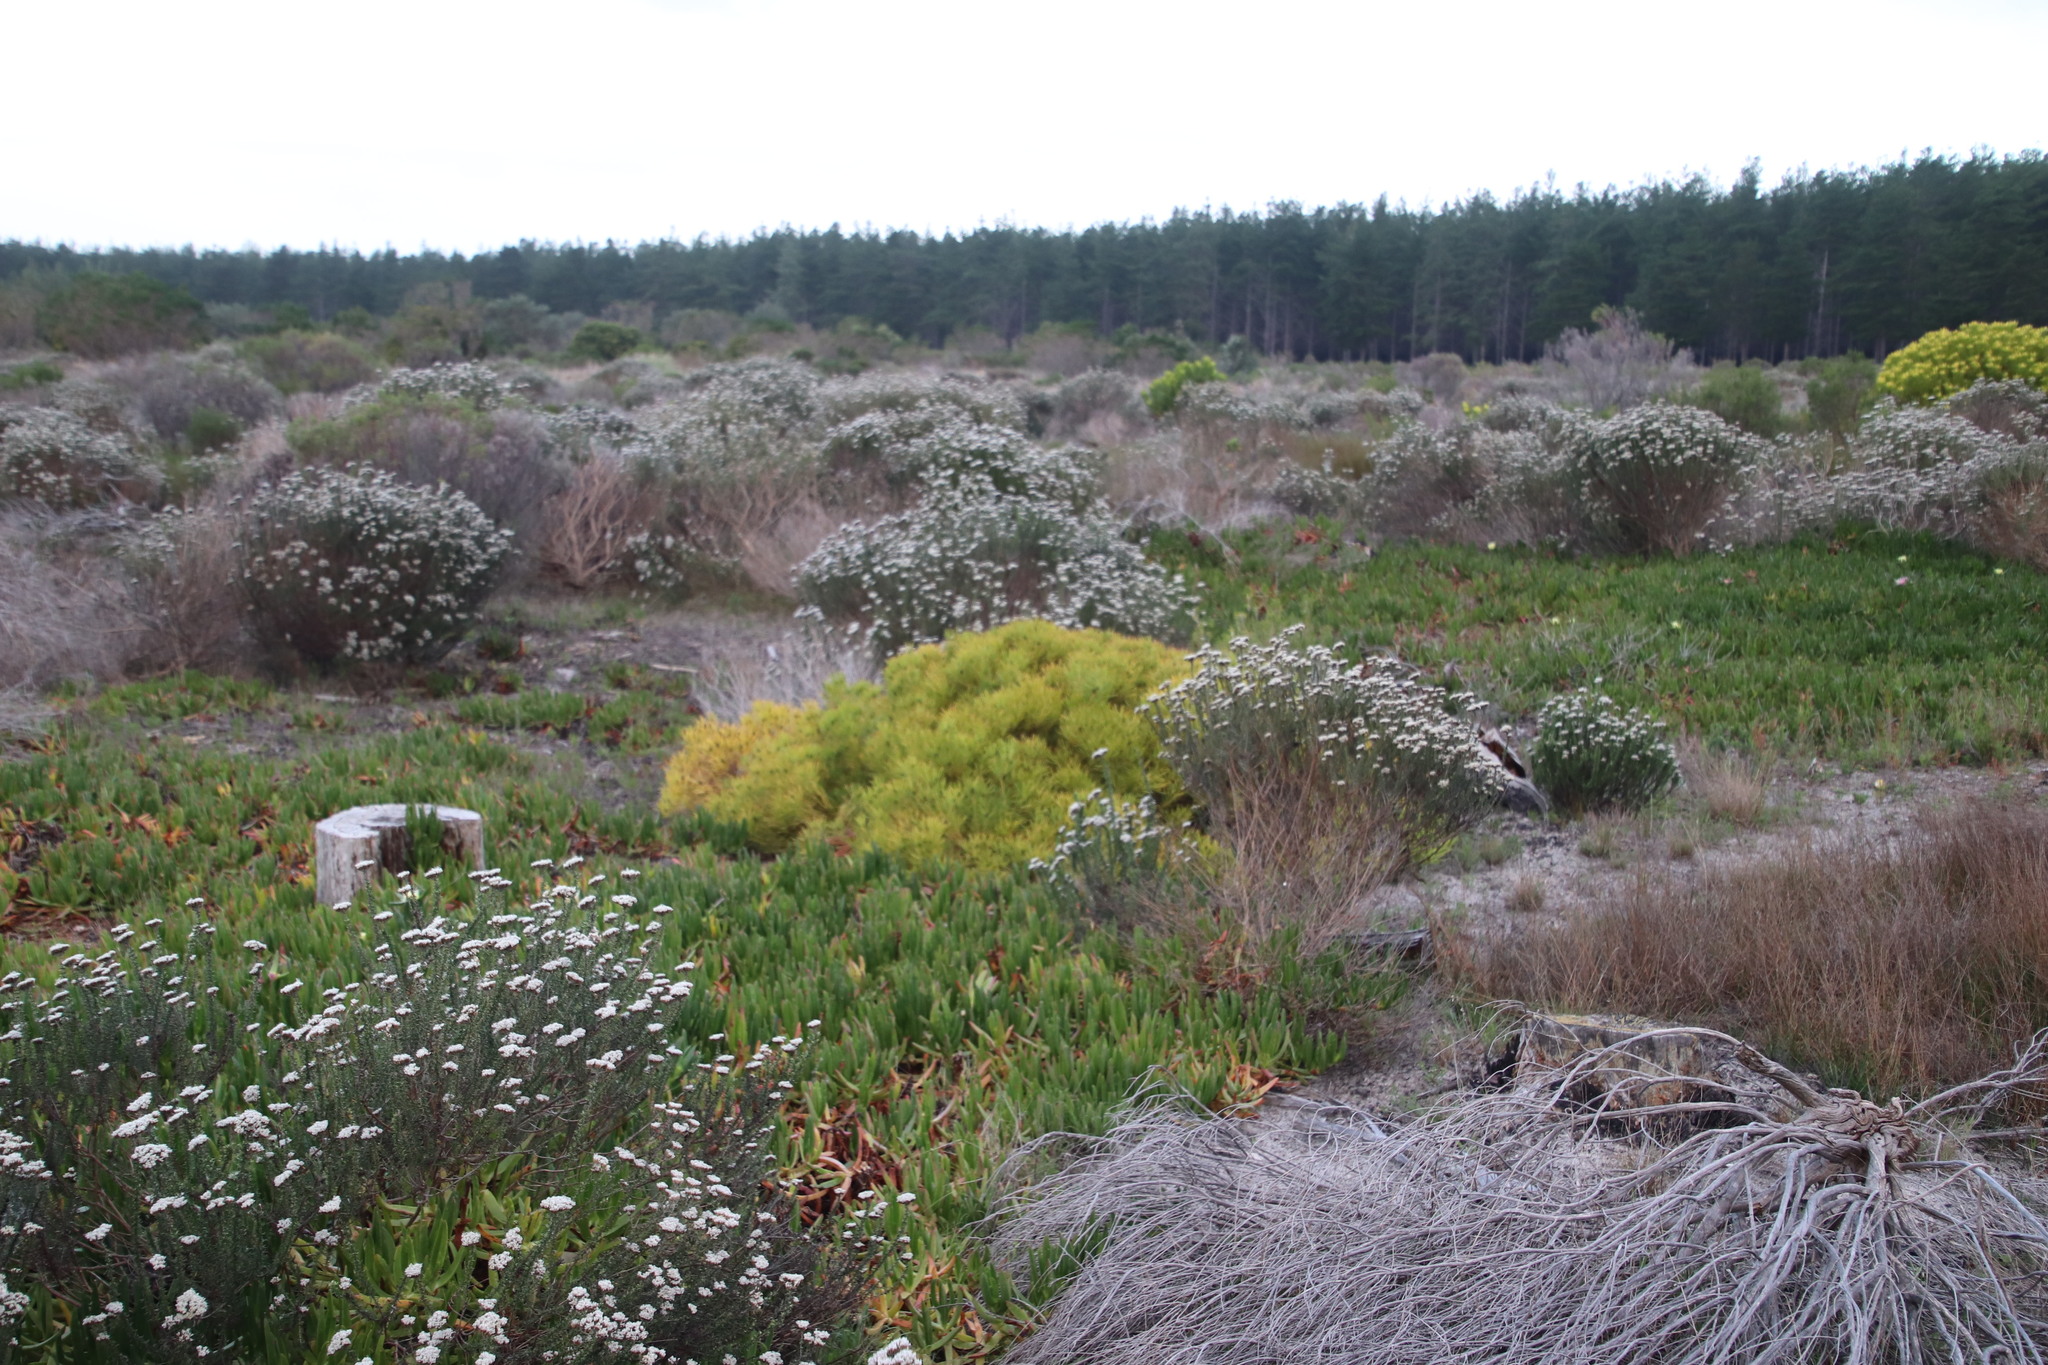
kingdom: Plantae
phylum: Tracheophyta
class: Magnoliopsida
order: Proteales
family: Proteaceae
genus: Leucadendron
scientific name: Leucadendron salignum
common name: Common sunshine conebush
